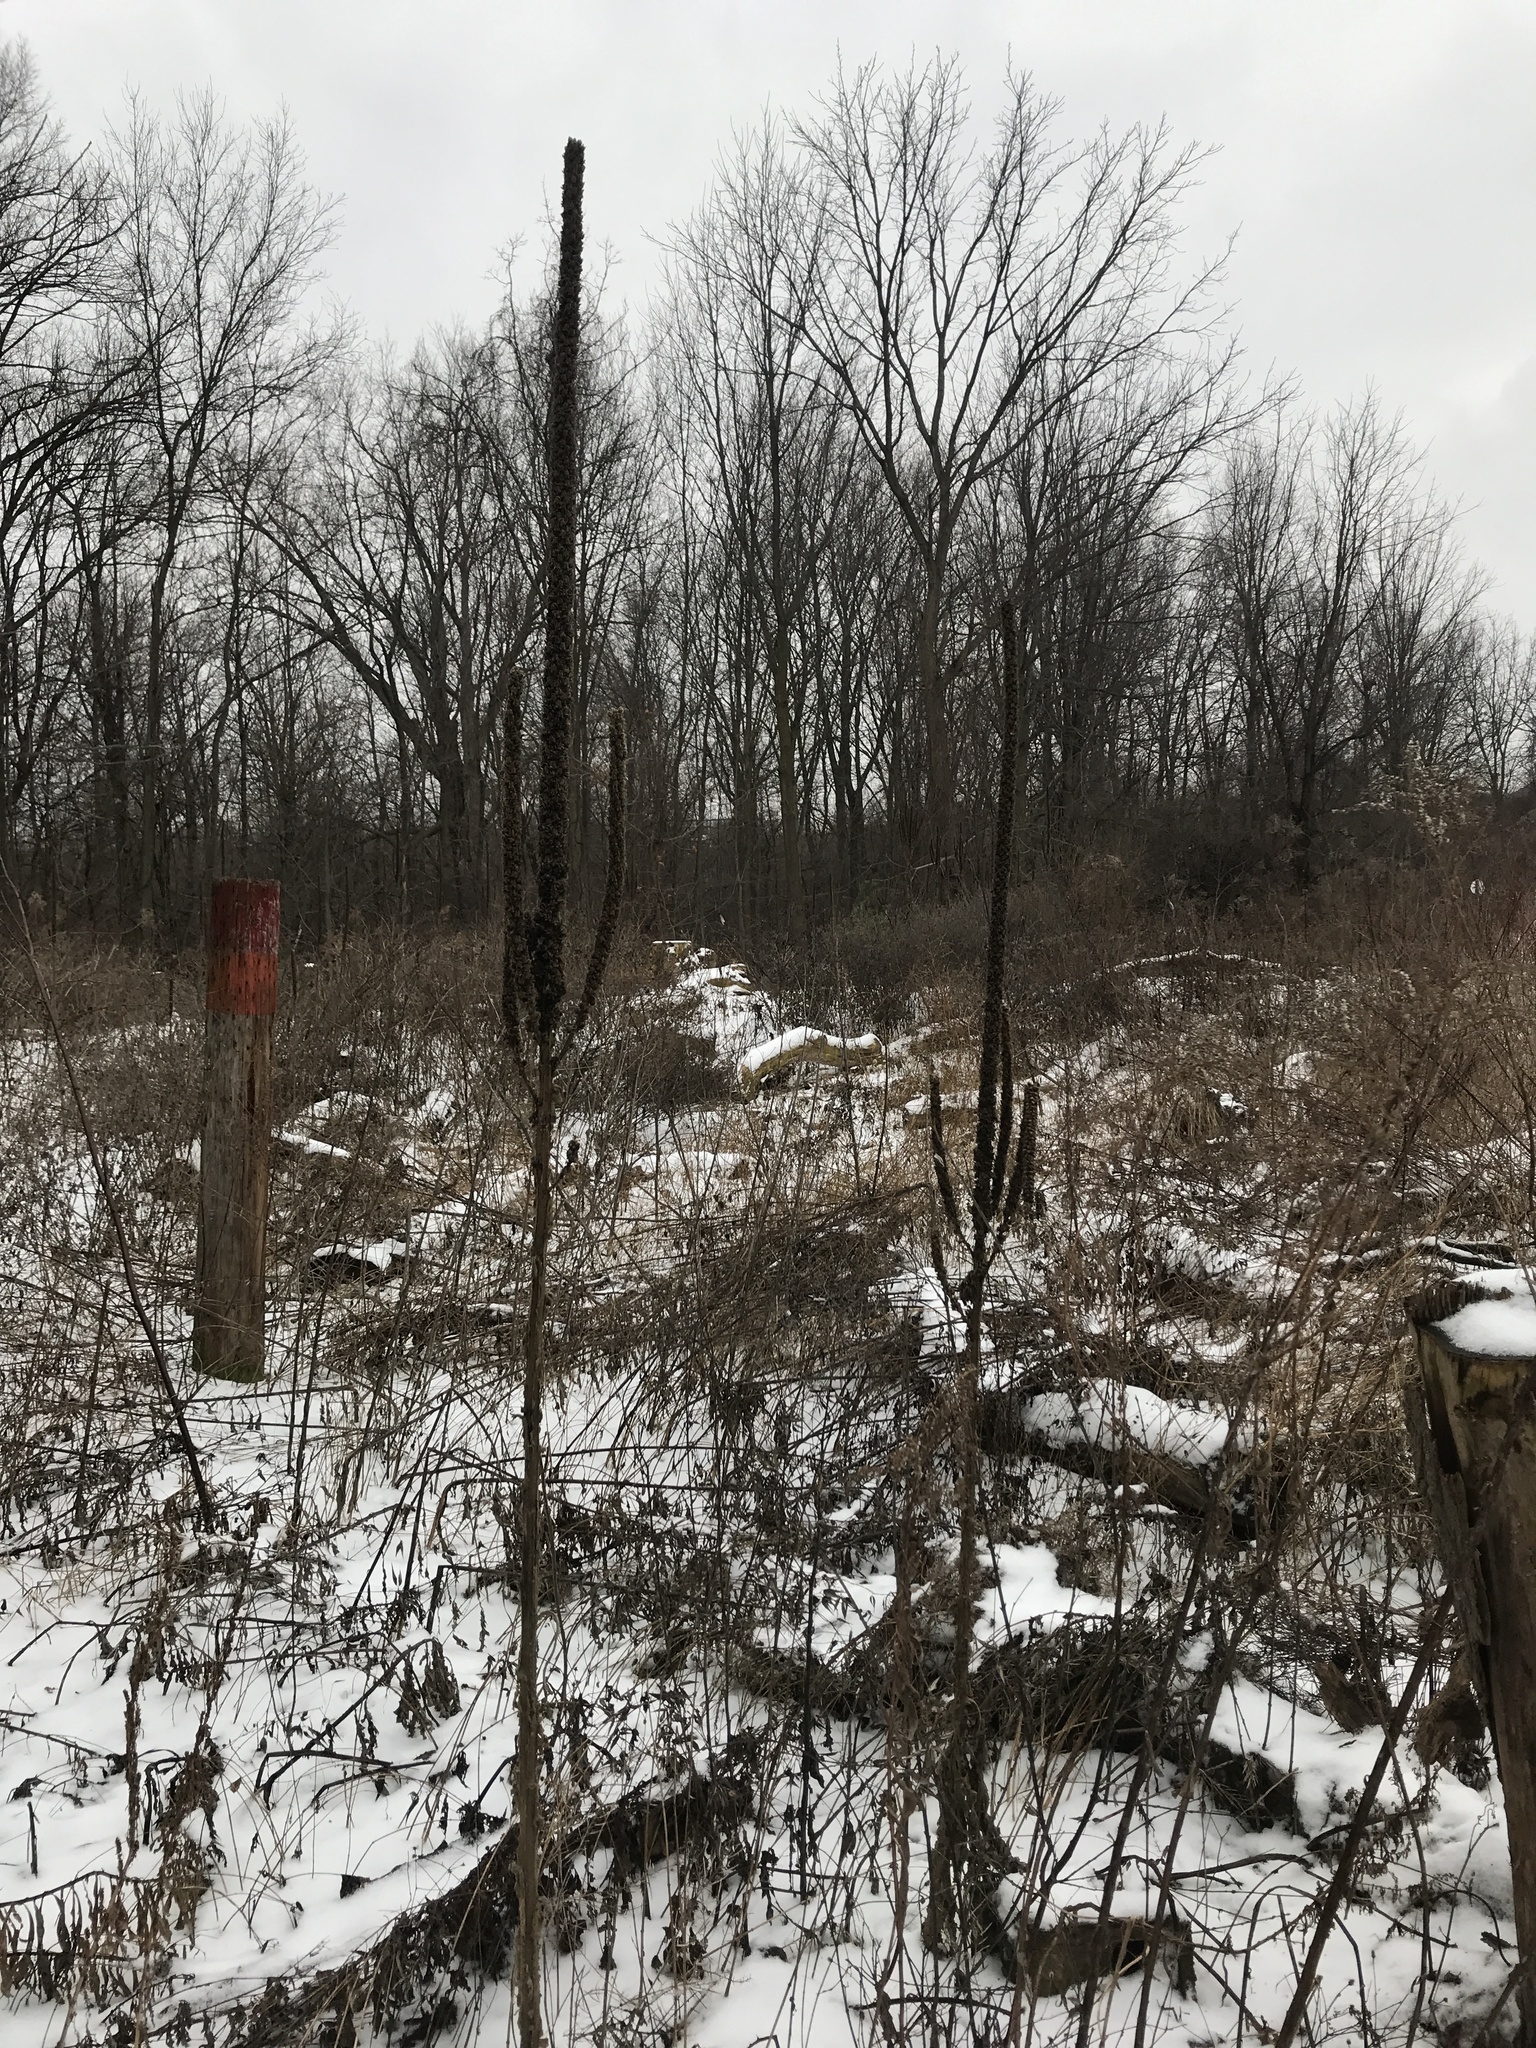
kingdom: Plantae
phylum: Tracheophyta
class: Magnoliopsida
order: Lamiales
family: Scrophulariaceae
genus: Verbascum
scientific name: Verbascum thapsus
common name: Common mullein
